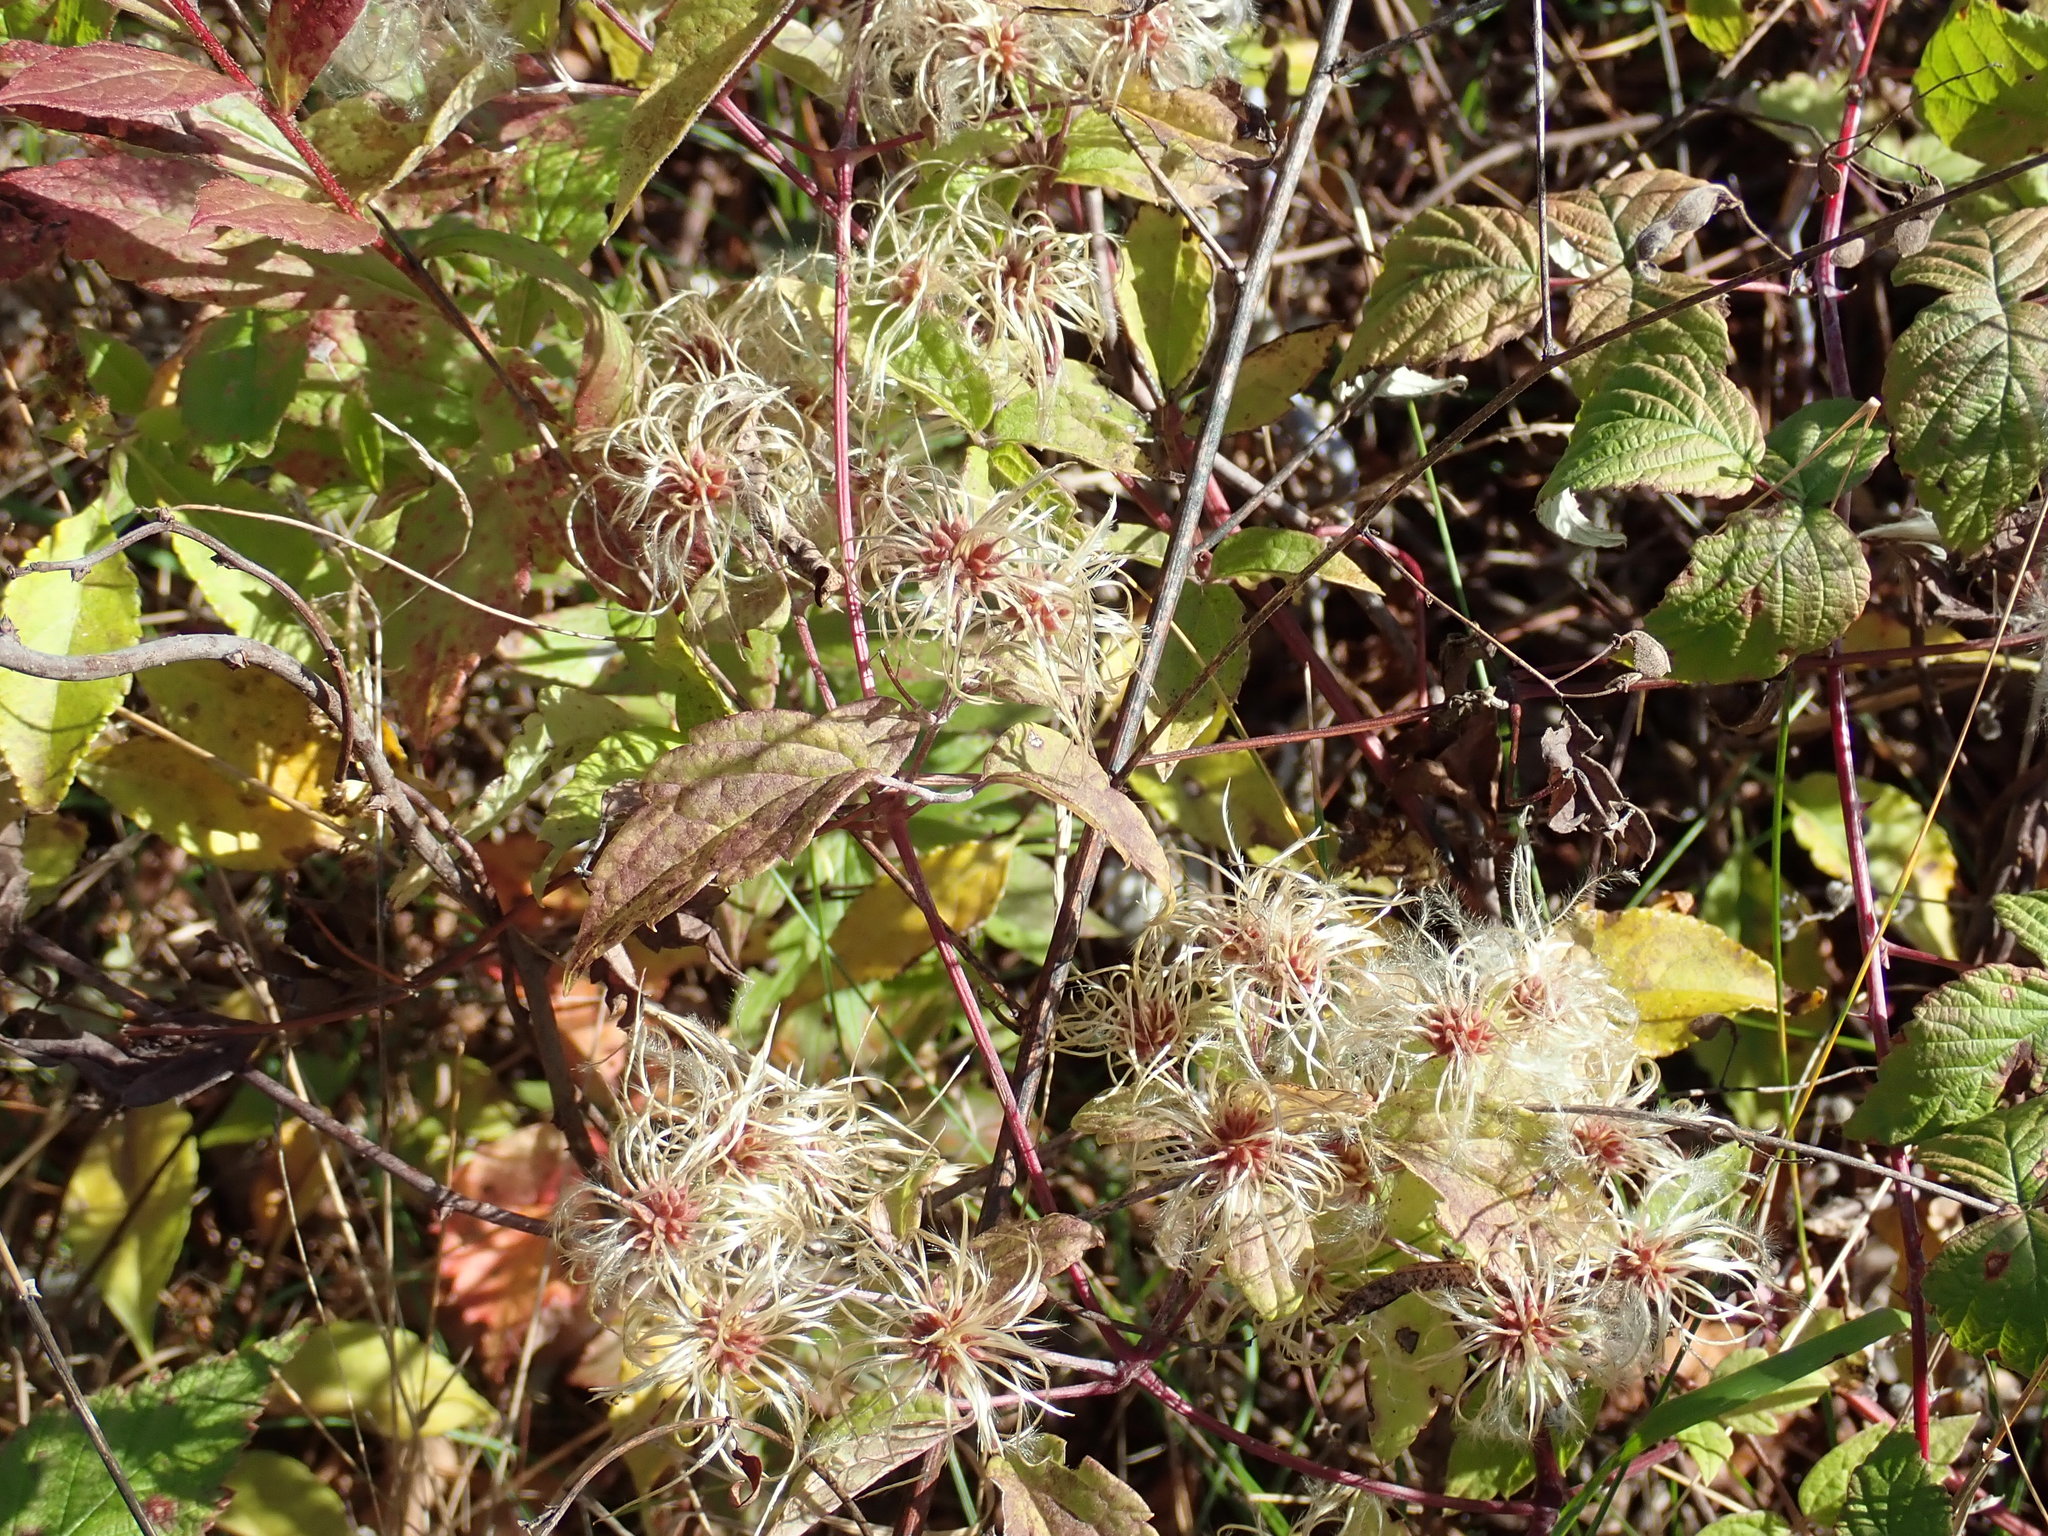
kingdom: Plantae
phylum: Tracheophyta
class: Magnoliopsida
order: Ranunculales
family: Ranunculaceae
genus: Clematis
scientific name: Clematis virginiana
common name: Virgin's-bower
